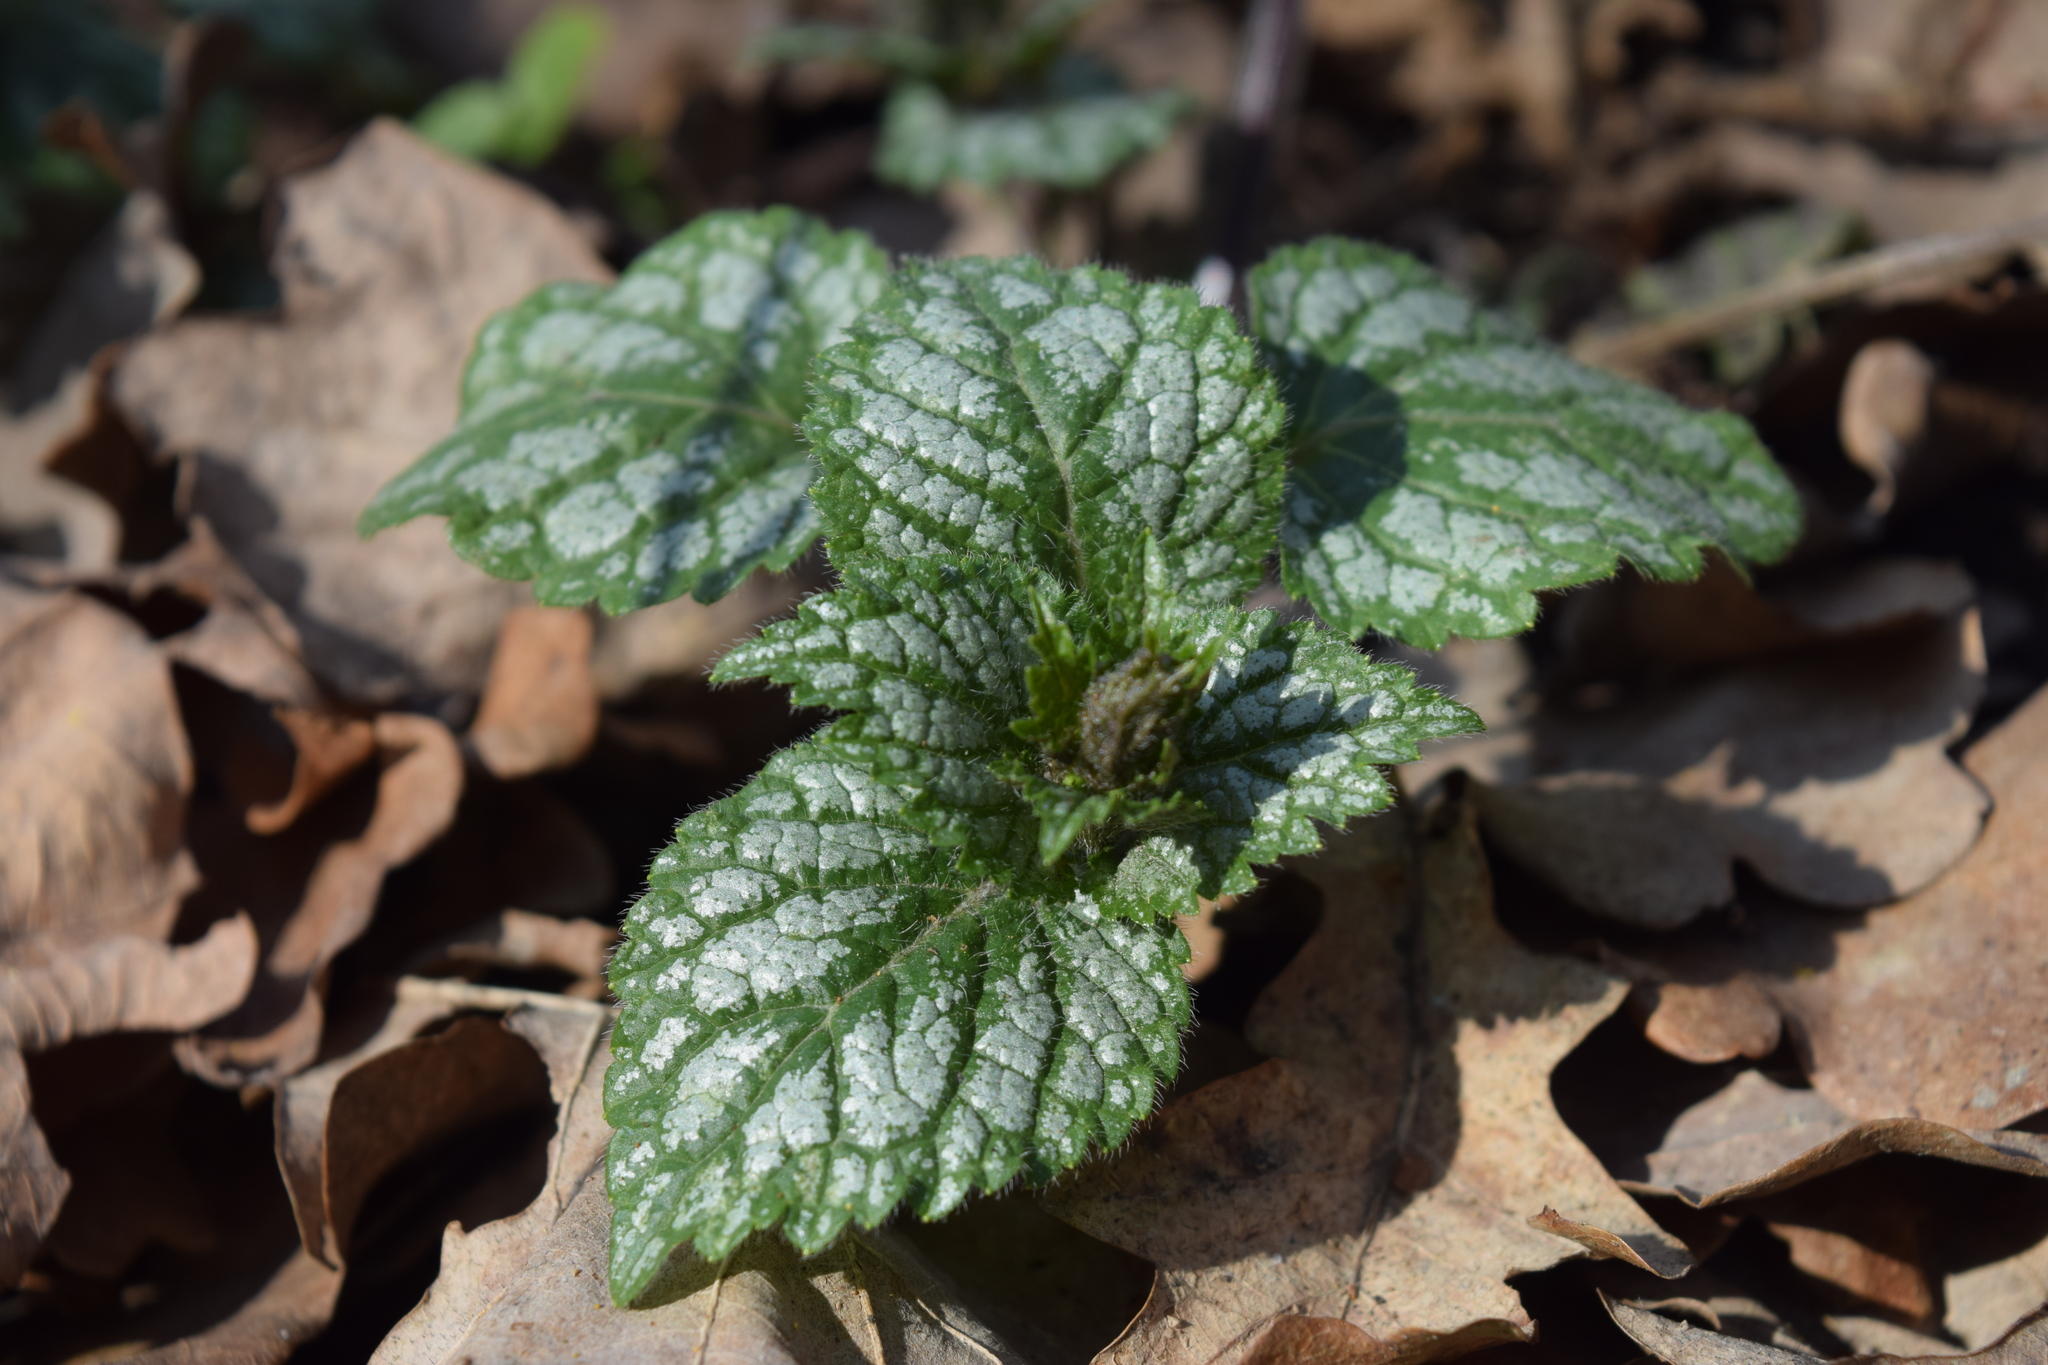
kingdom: Plantae
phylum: Tracheophyta
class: Magnoliopsida
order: Lamiales
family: Lamiaceae
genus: Lamium
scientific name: Lamium galeobdolon
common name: Yellow archangel
